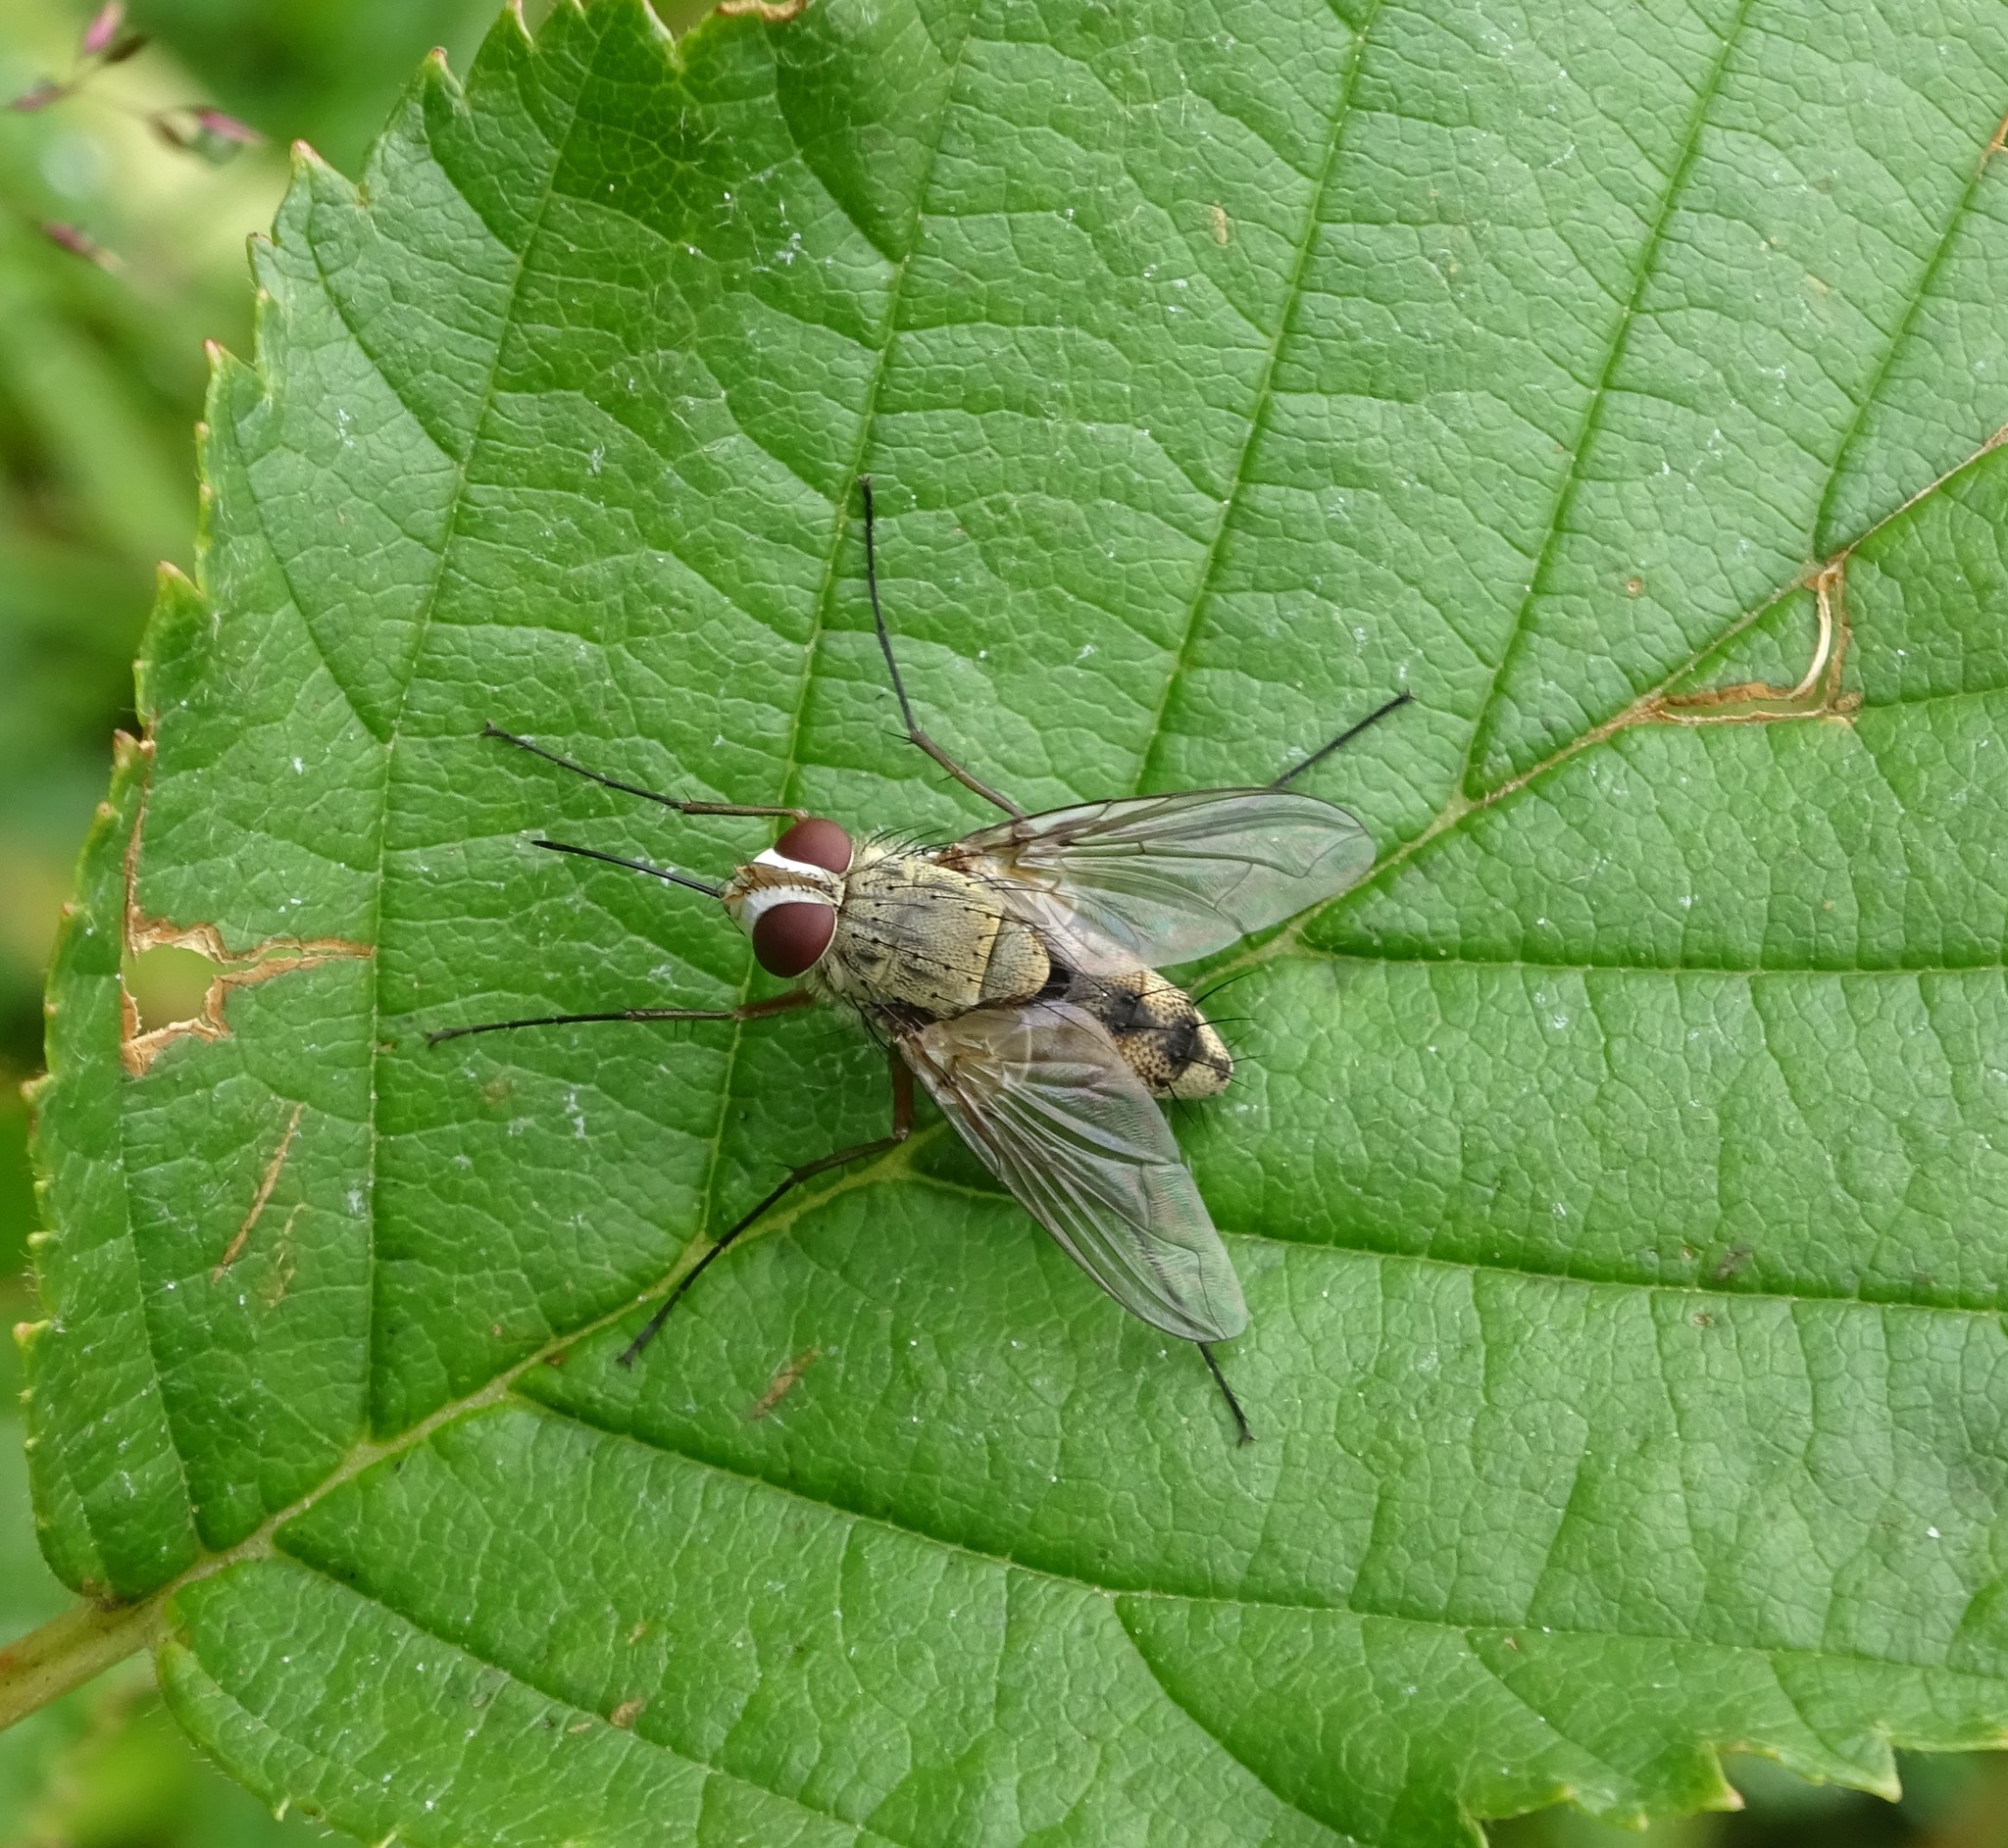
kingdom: Animalia
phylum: Arthropoda
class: Insecta
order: Diptera
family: Tachinidae
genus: Prosena
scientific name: Prosena siberita
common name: Parasitic fly
